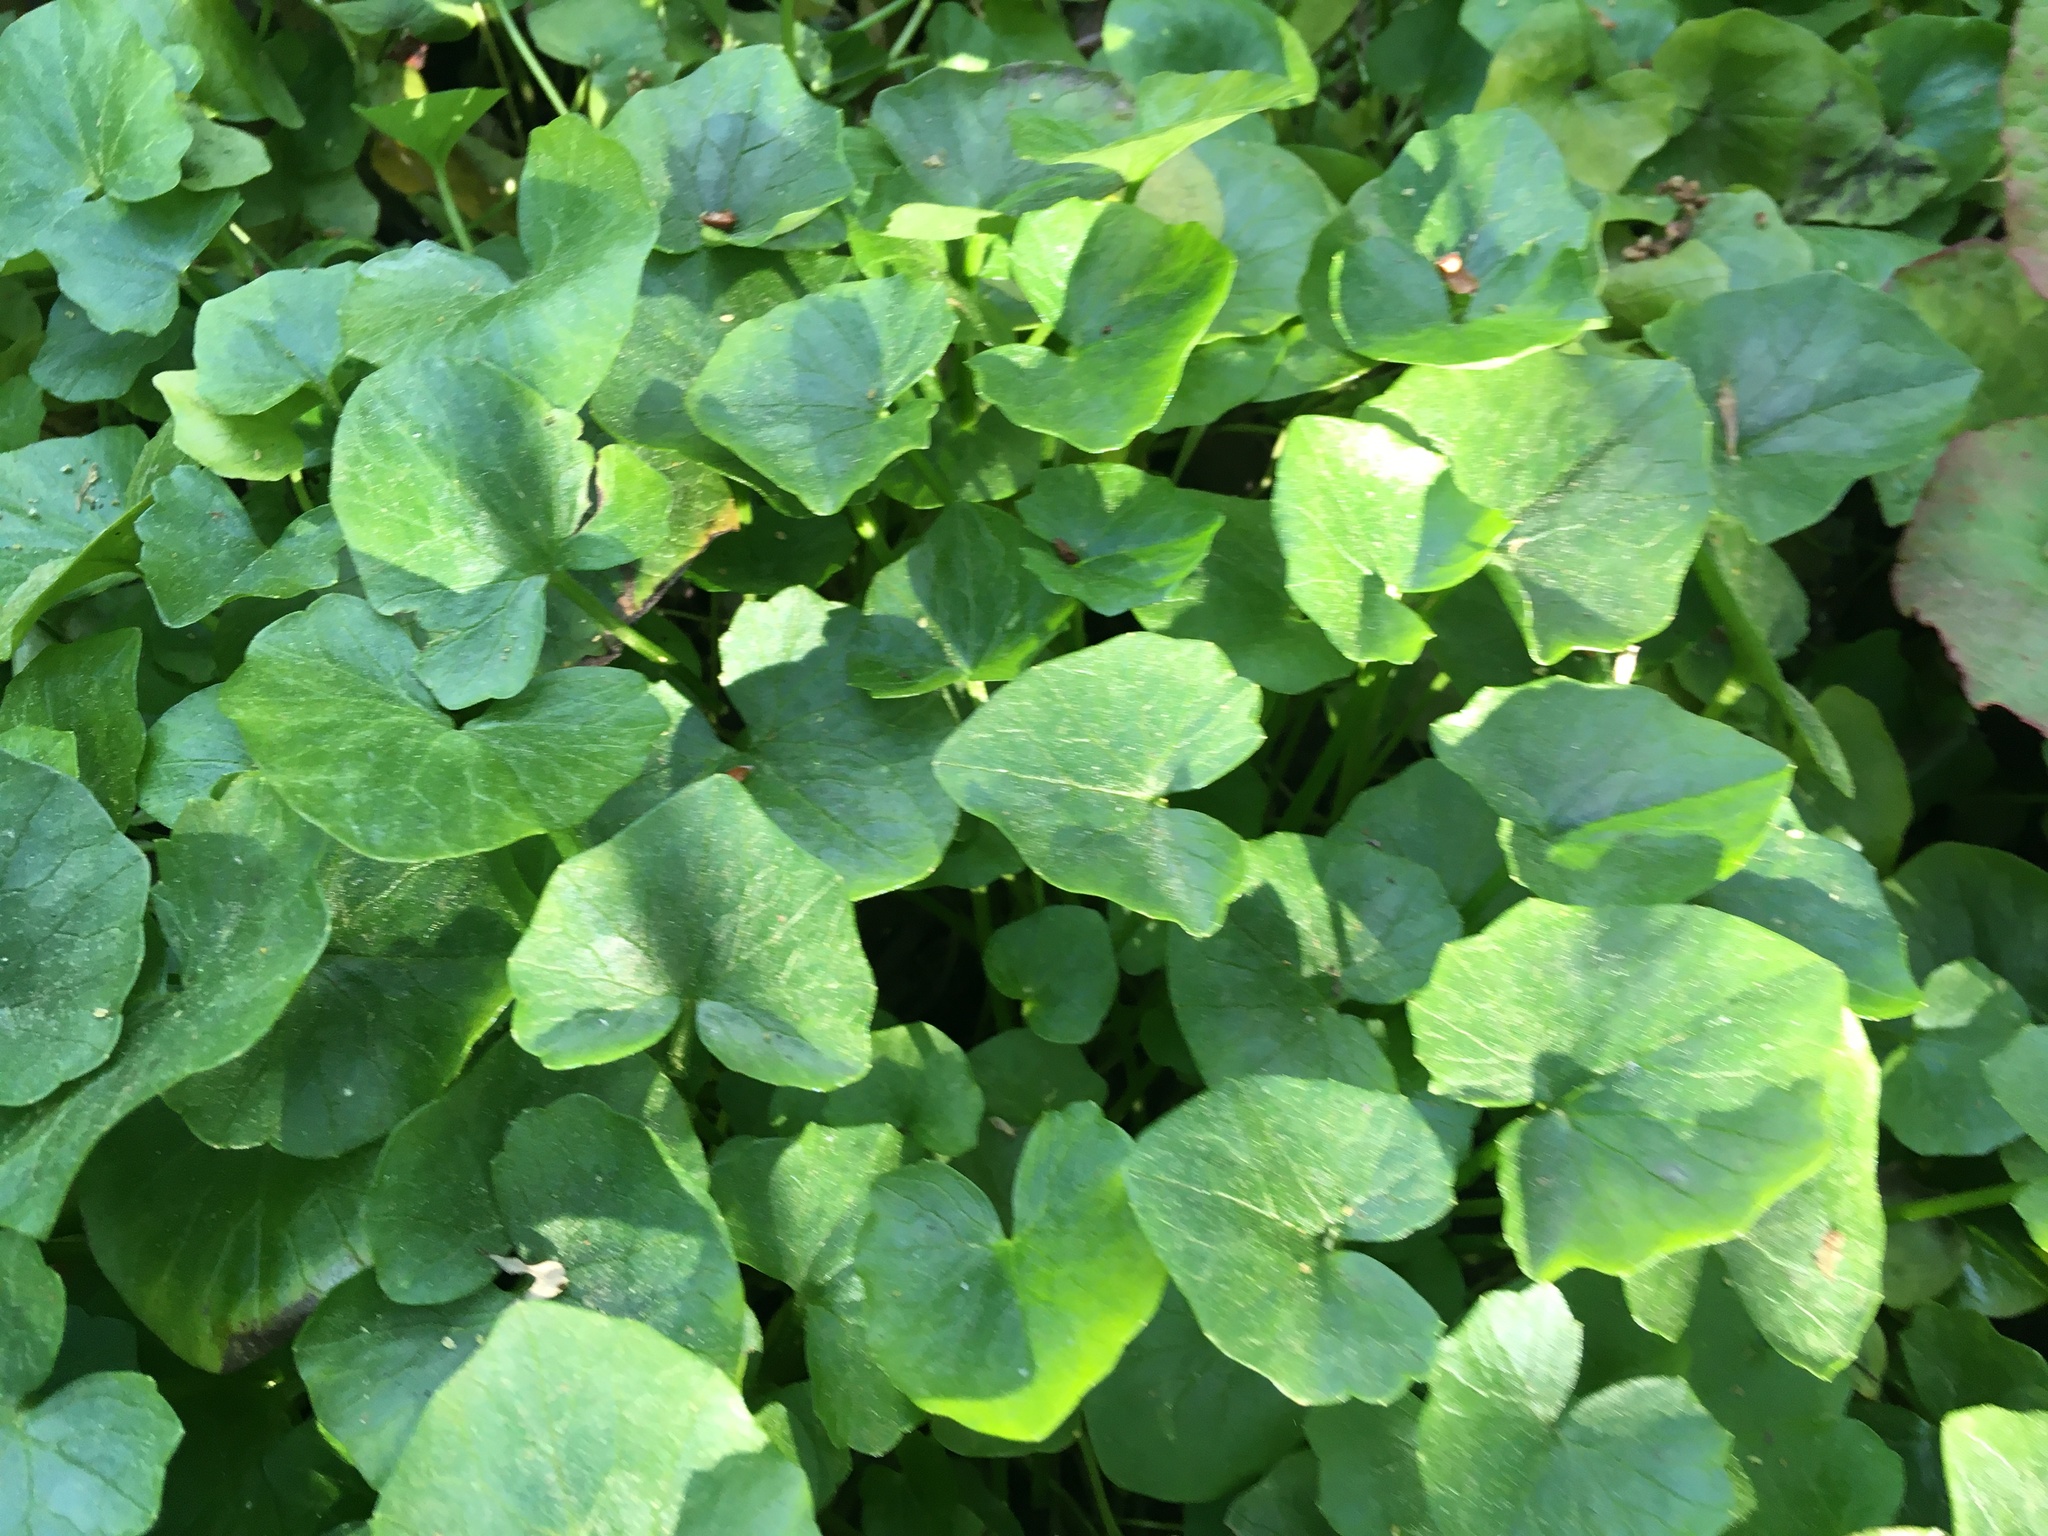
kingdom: Plantae
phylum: Tracheophyta
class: Magnoliopsida
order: Ranunculales
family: Ranunculaceae
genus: Ficaria
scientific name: Ficaria verna
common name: Lesser celandine
